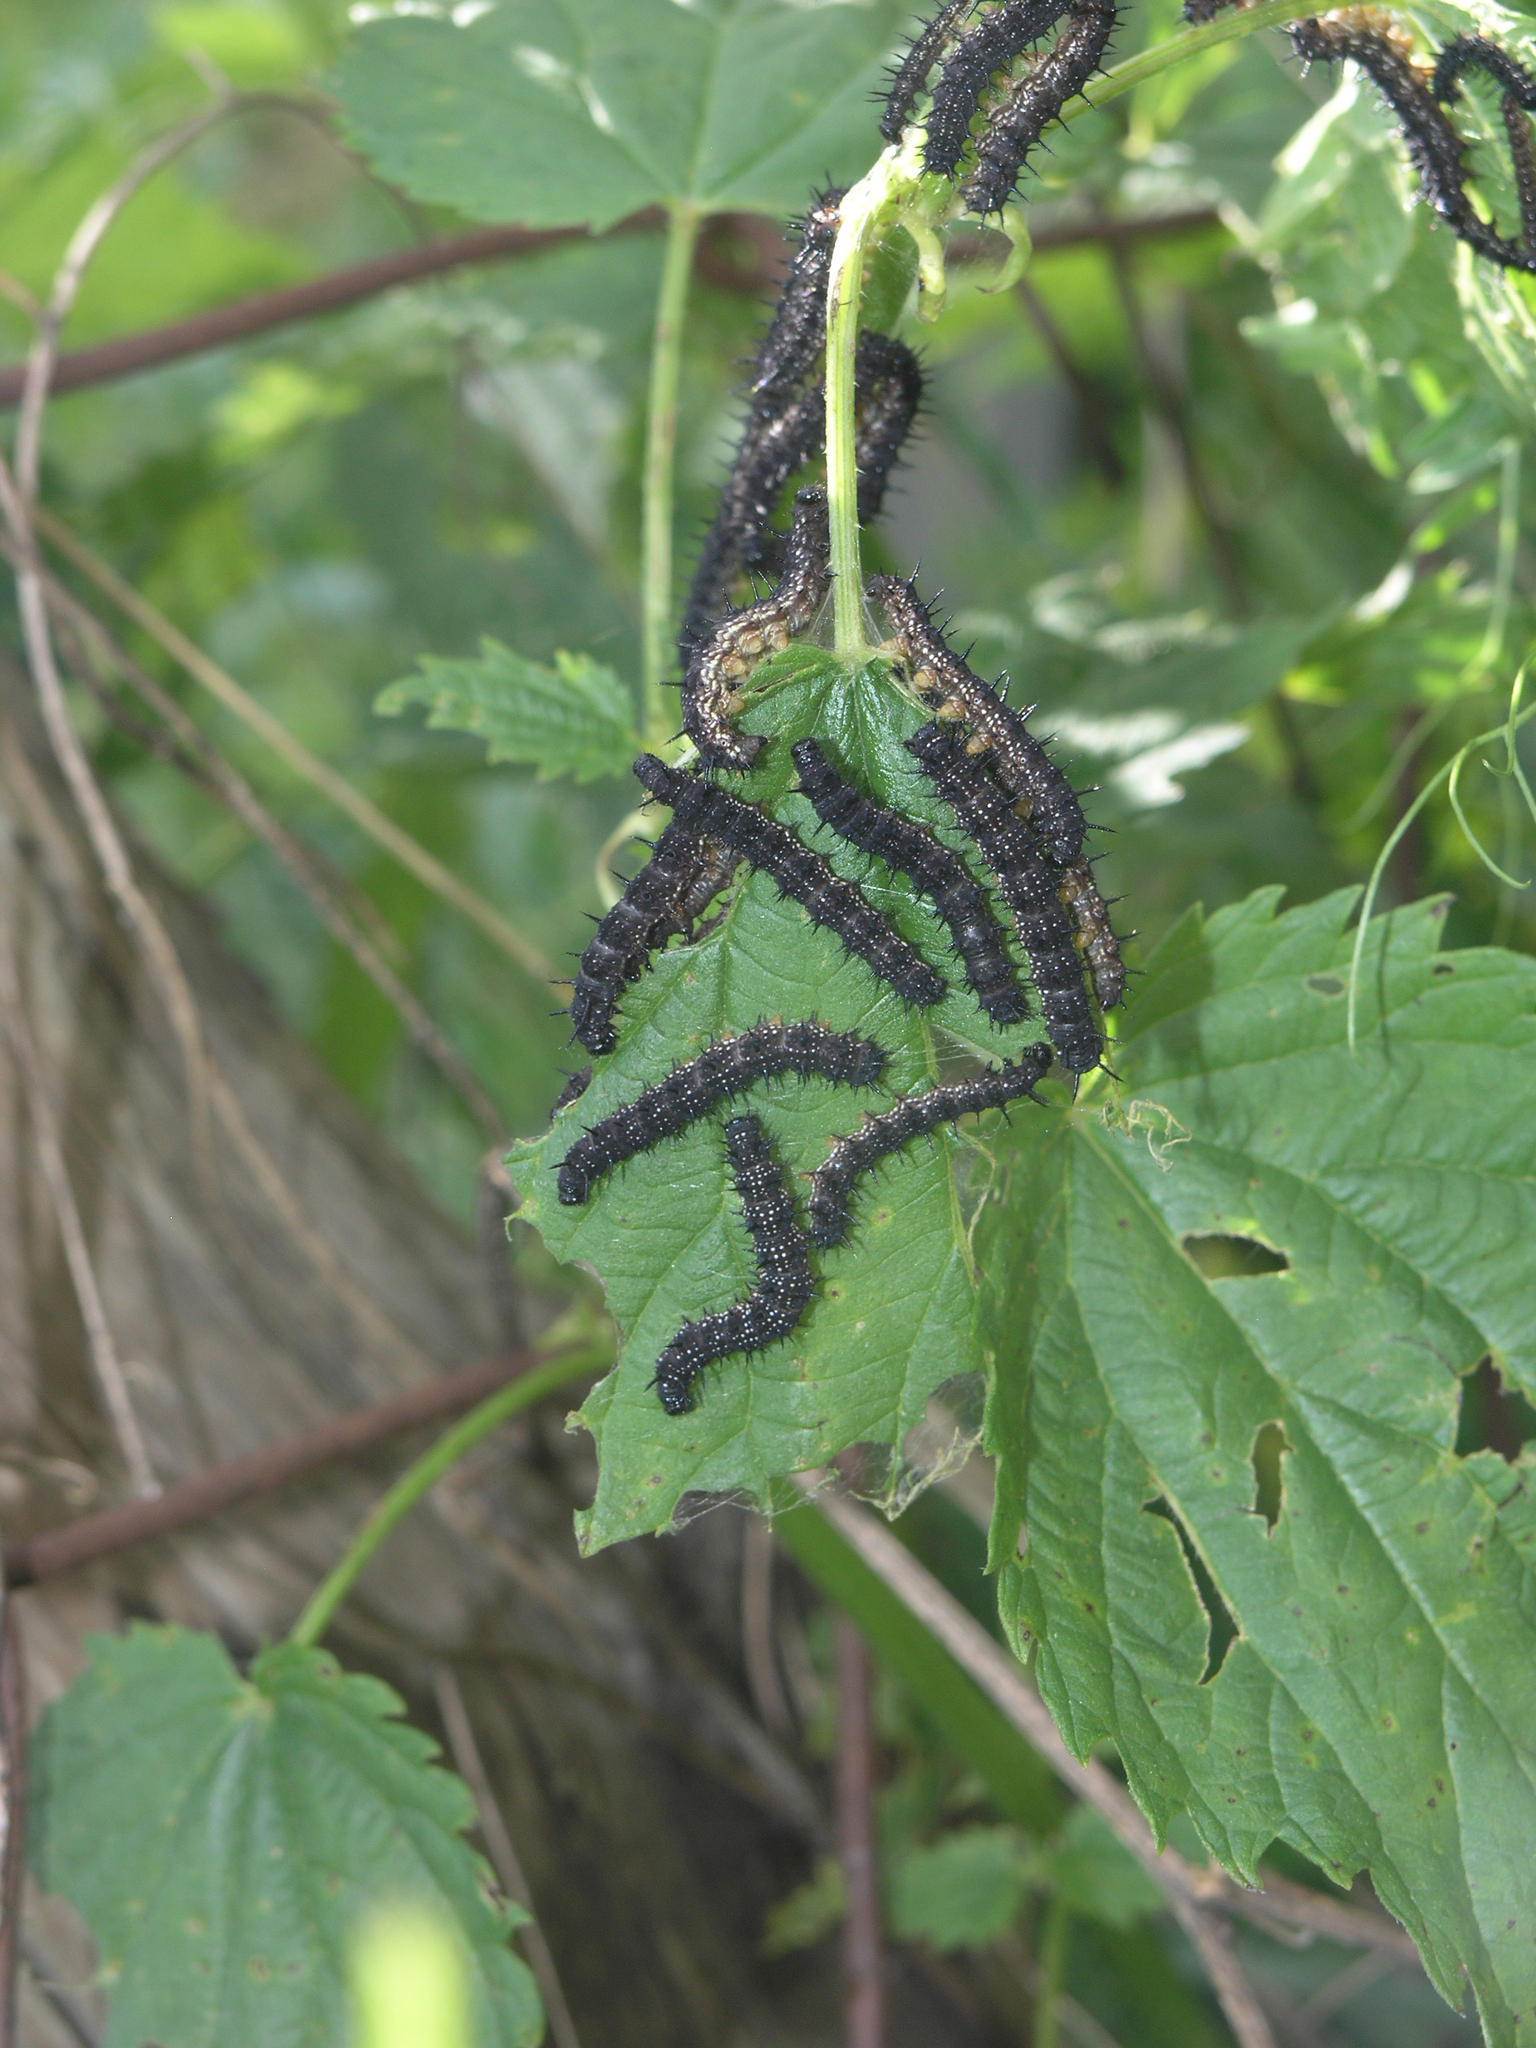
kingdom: Animalia
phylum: Arthropoda
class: Insecta
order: Lepidoptera
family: Nymphalidae
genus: Aglais
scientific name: Aglais io
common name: Peacock
